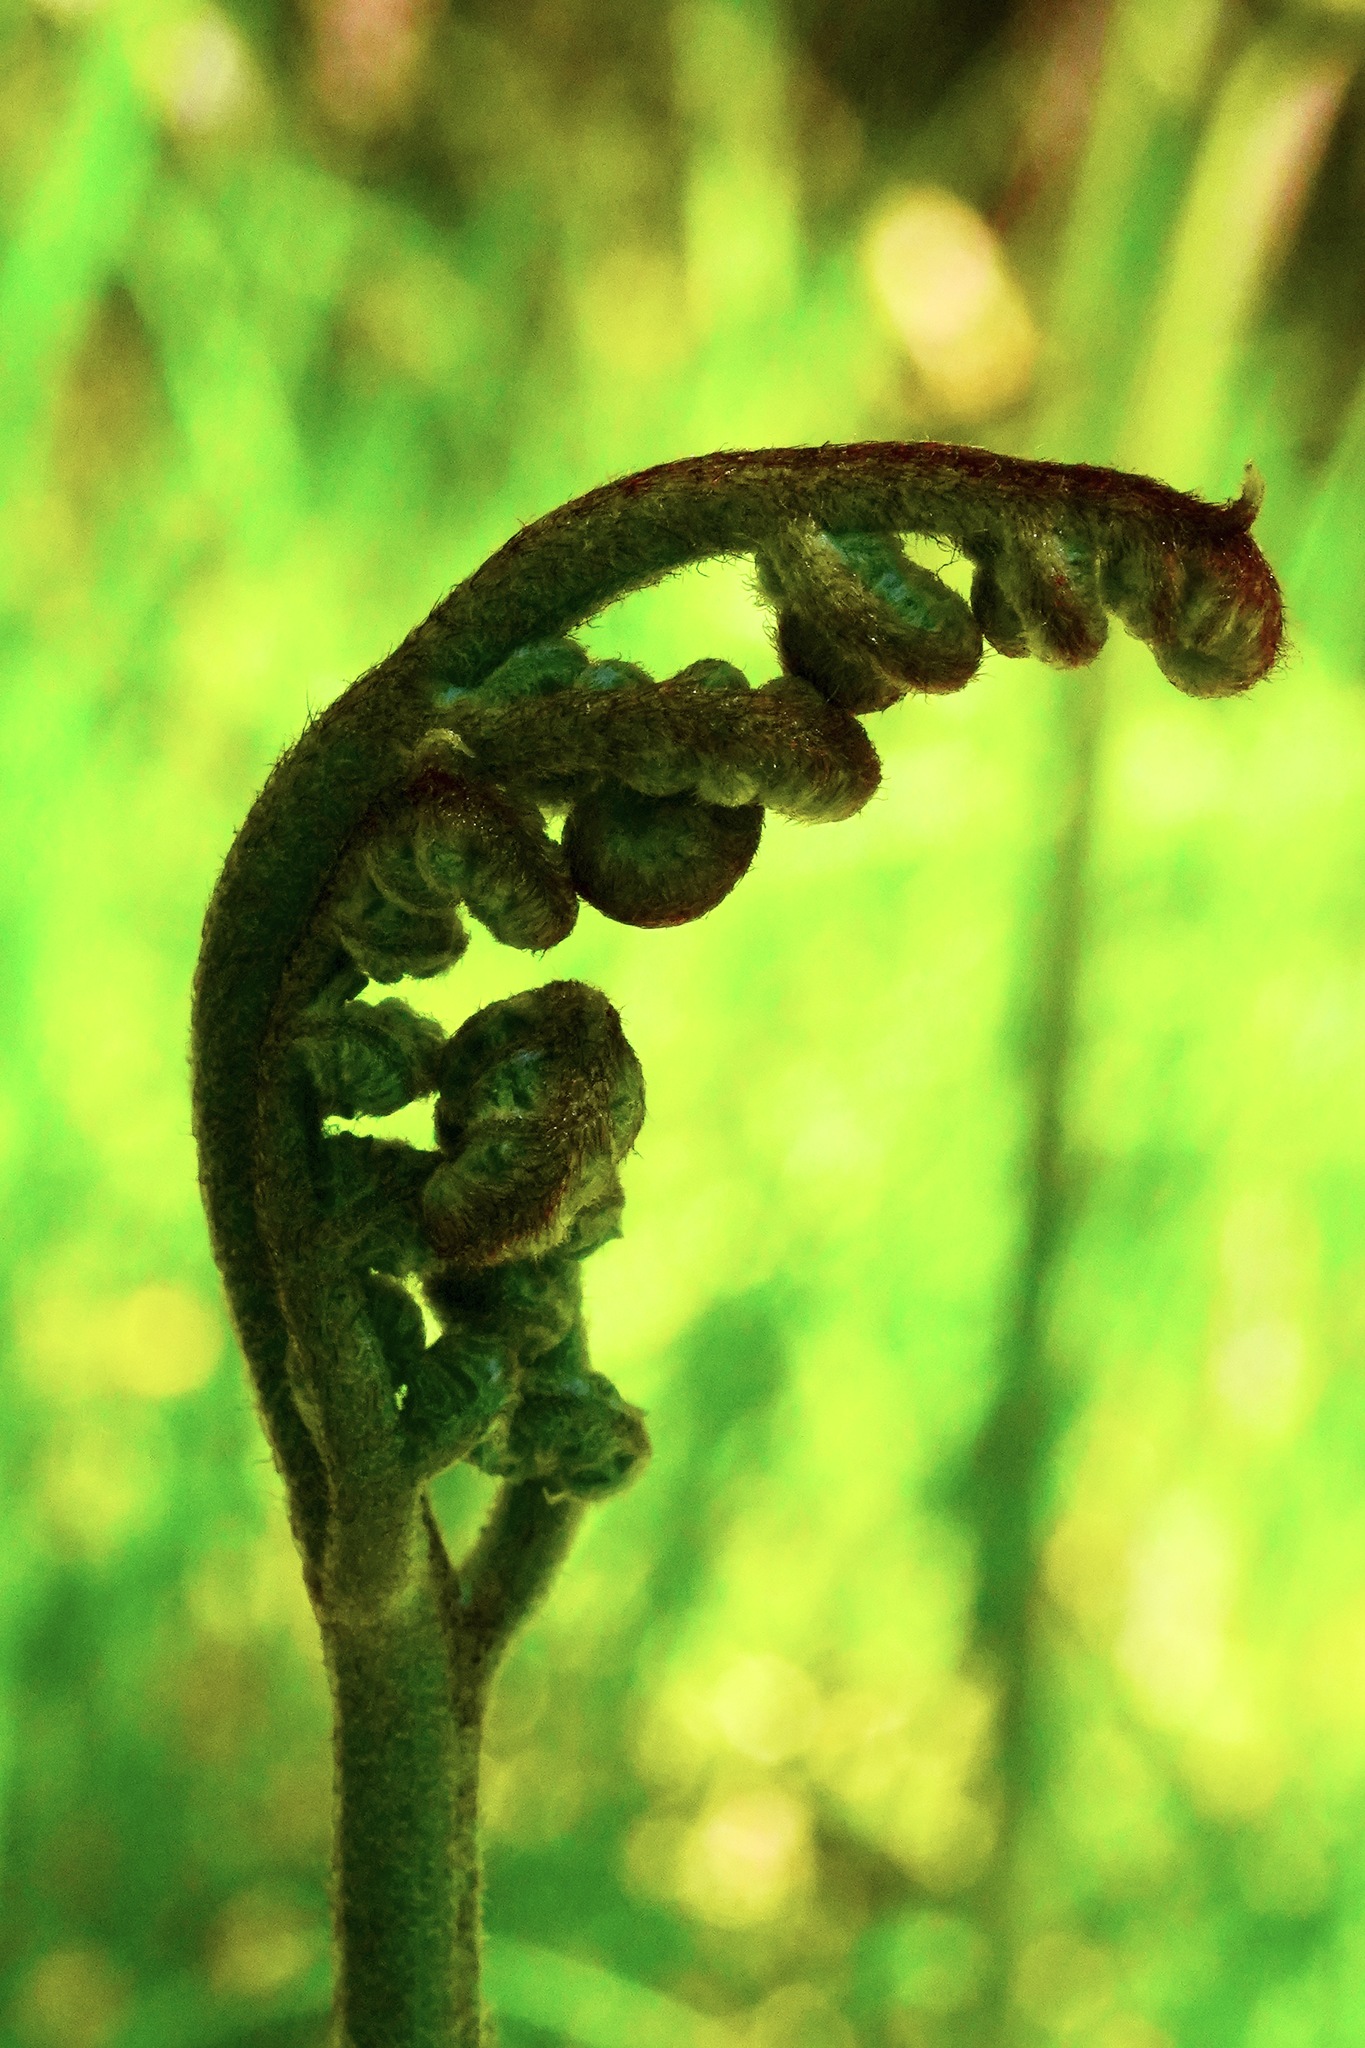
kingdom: Plantae
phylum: Tracheophyta
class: Polypodiopsida
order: Polypodiales
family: Dennstaedtiaceae
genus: Pteridium
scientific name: Pteridium aquilinum
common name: Bracken
